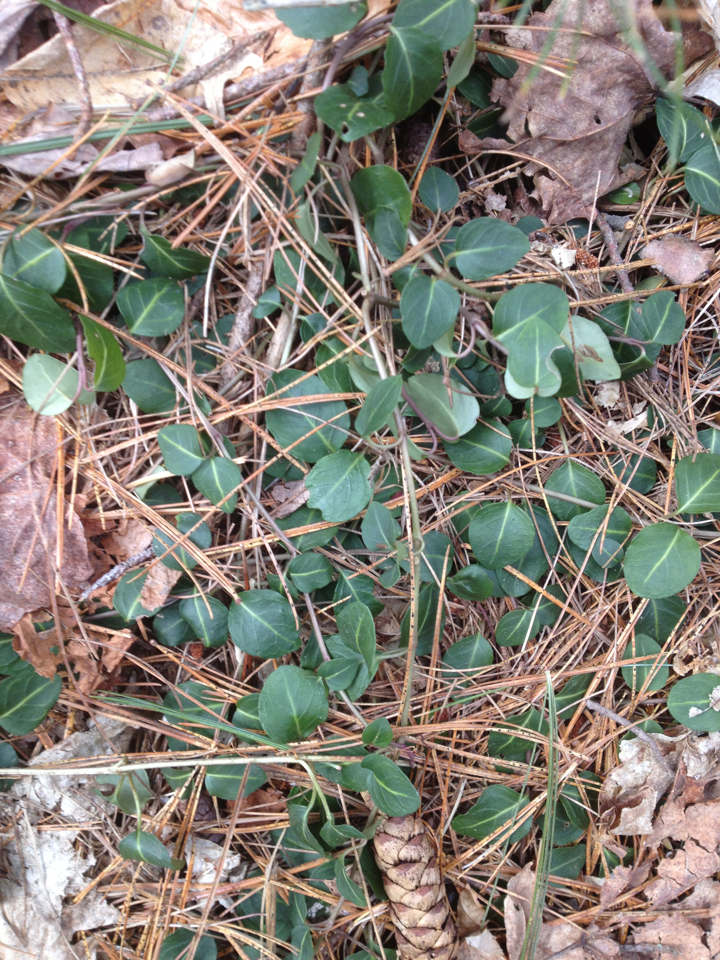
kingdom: Plantae
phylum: Tracheophyta
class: Magnoliopsida
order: Gentianales
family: Rubiaceae
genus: Mitchella
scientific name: Mitchella repens
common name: Partridge-berry
